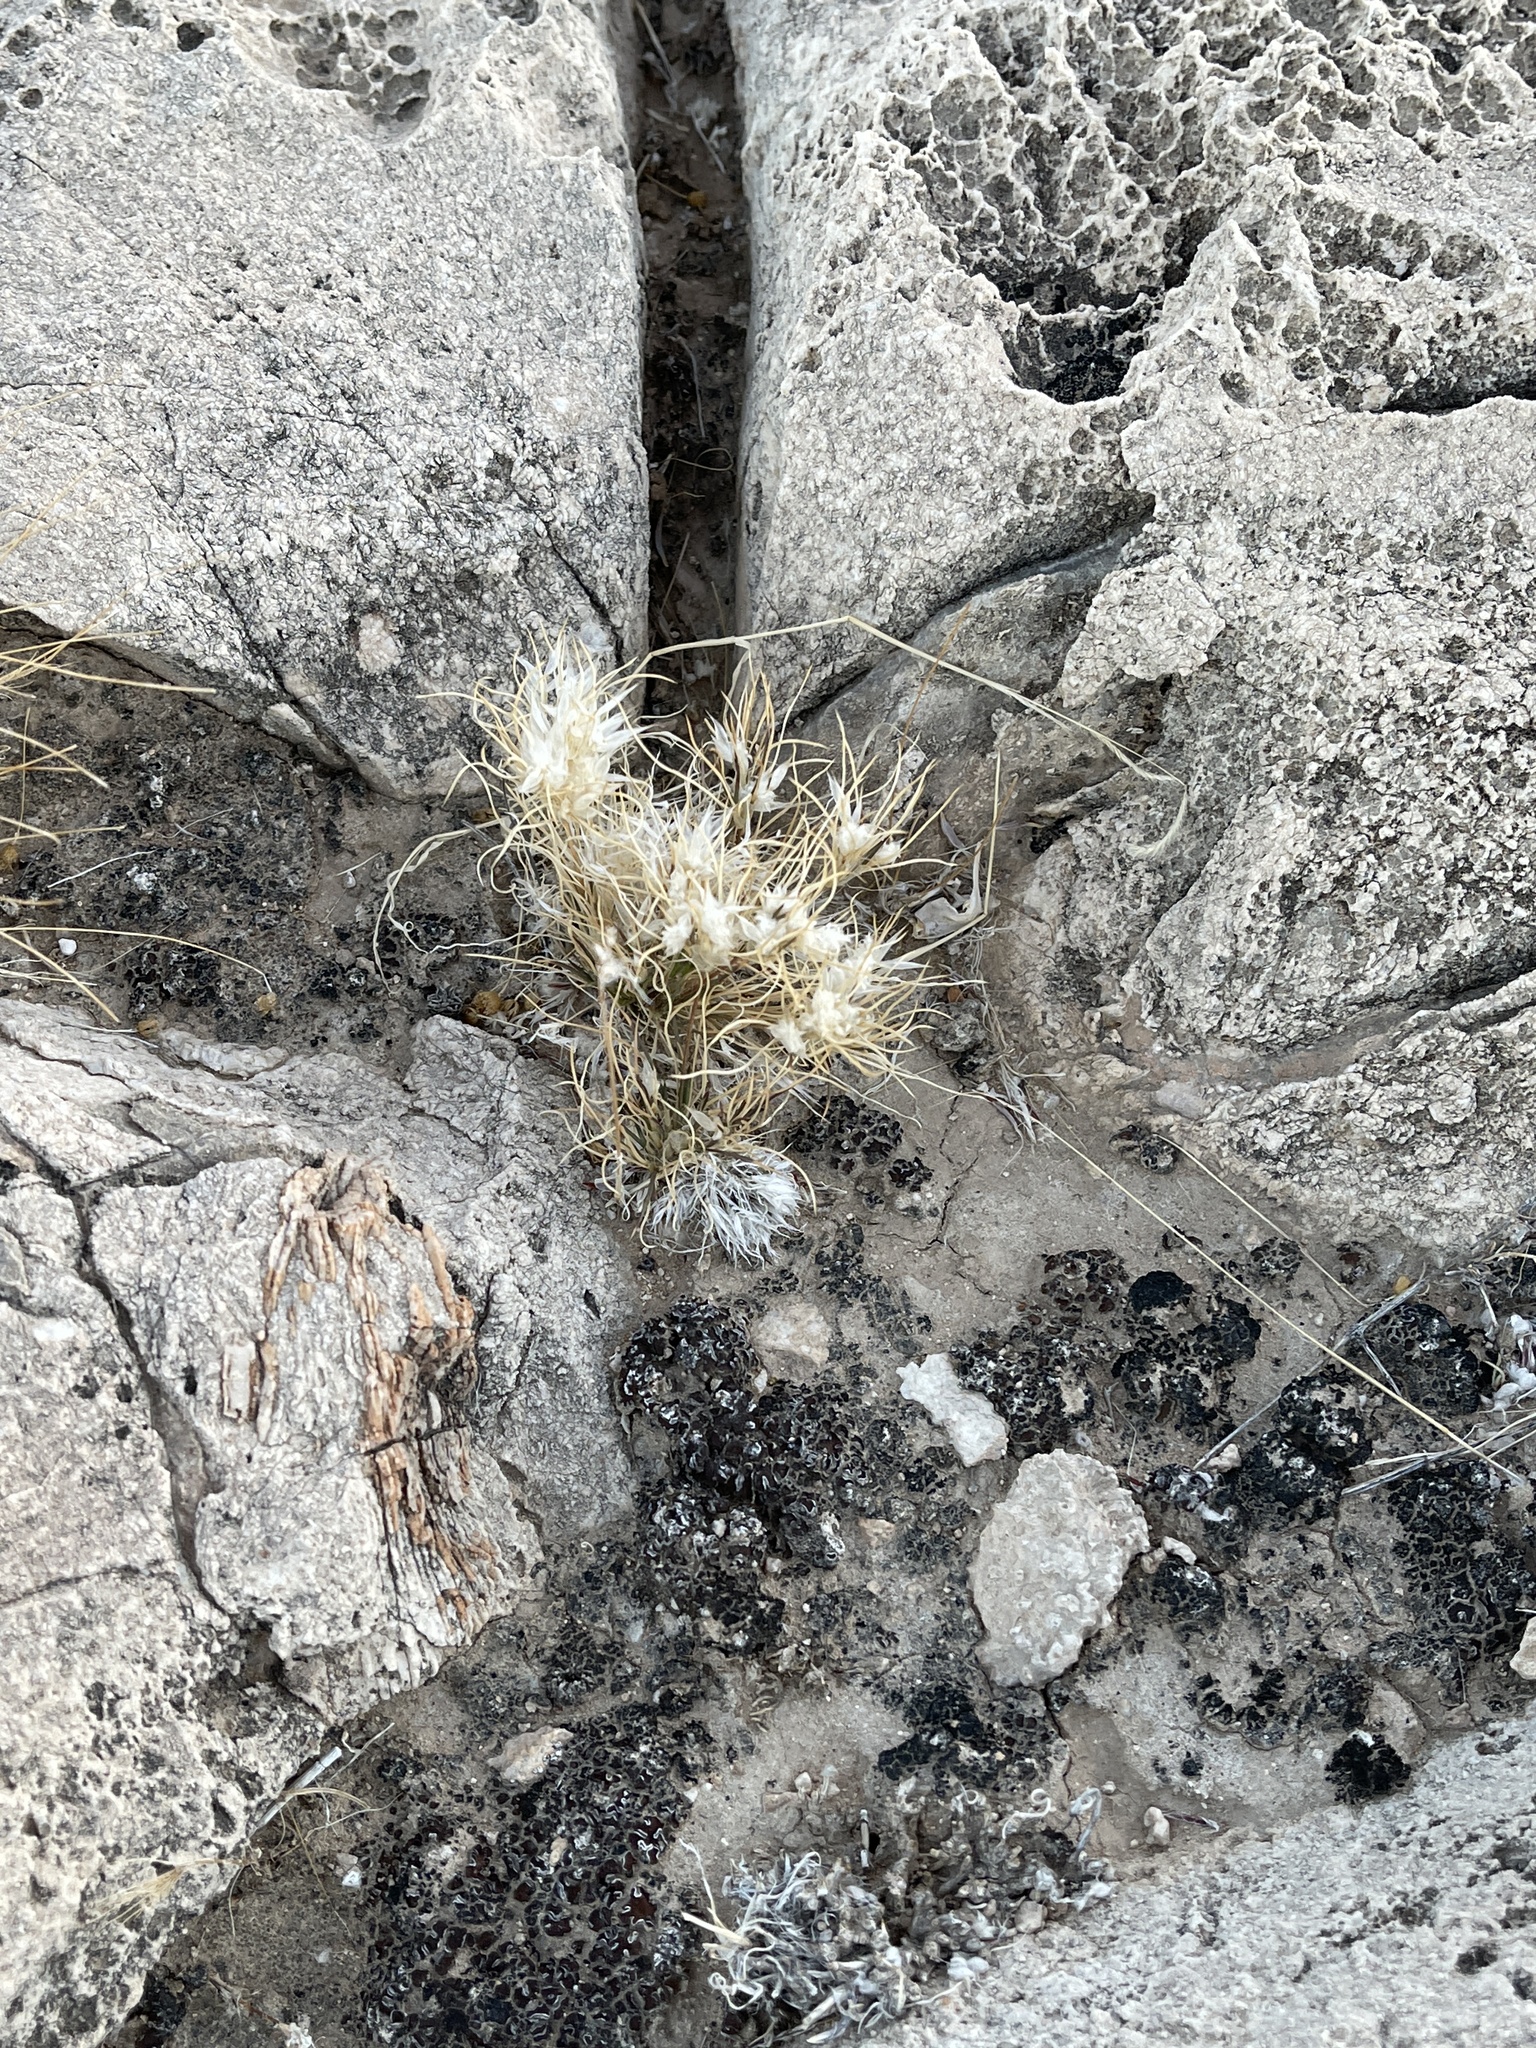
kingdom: Plantae
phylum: Tracheophyta
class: Liliopsida
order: Poales
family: Poaceae
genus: Dasyochloa
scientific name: Dasyochloa pulchella
